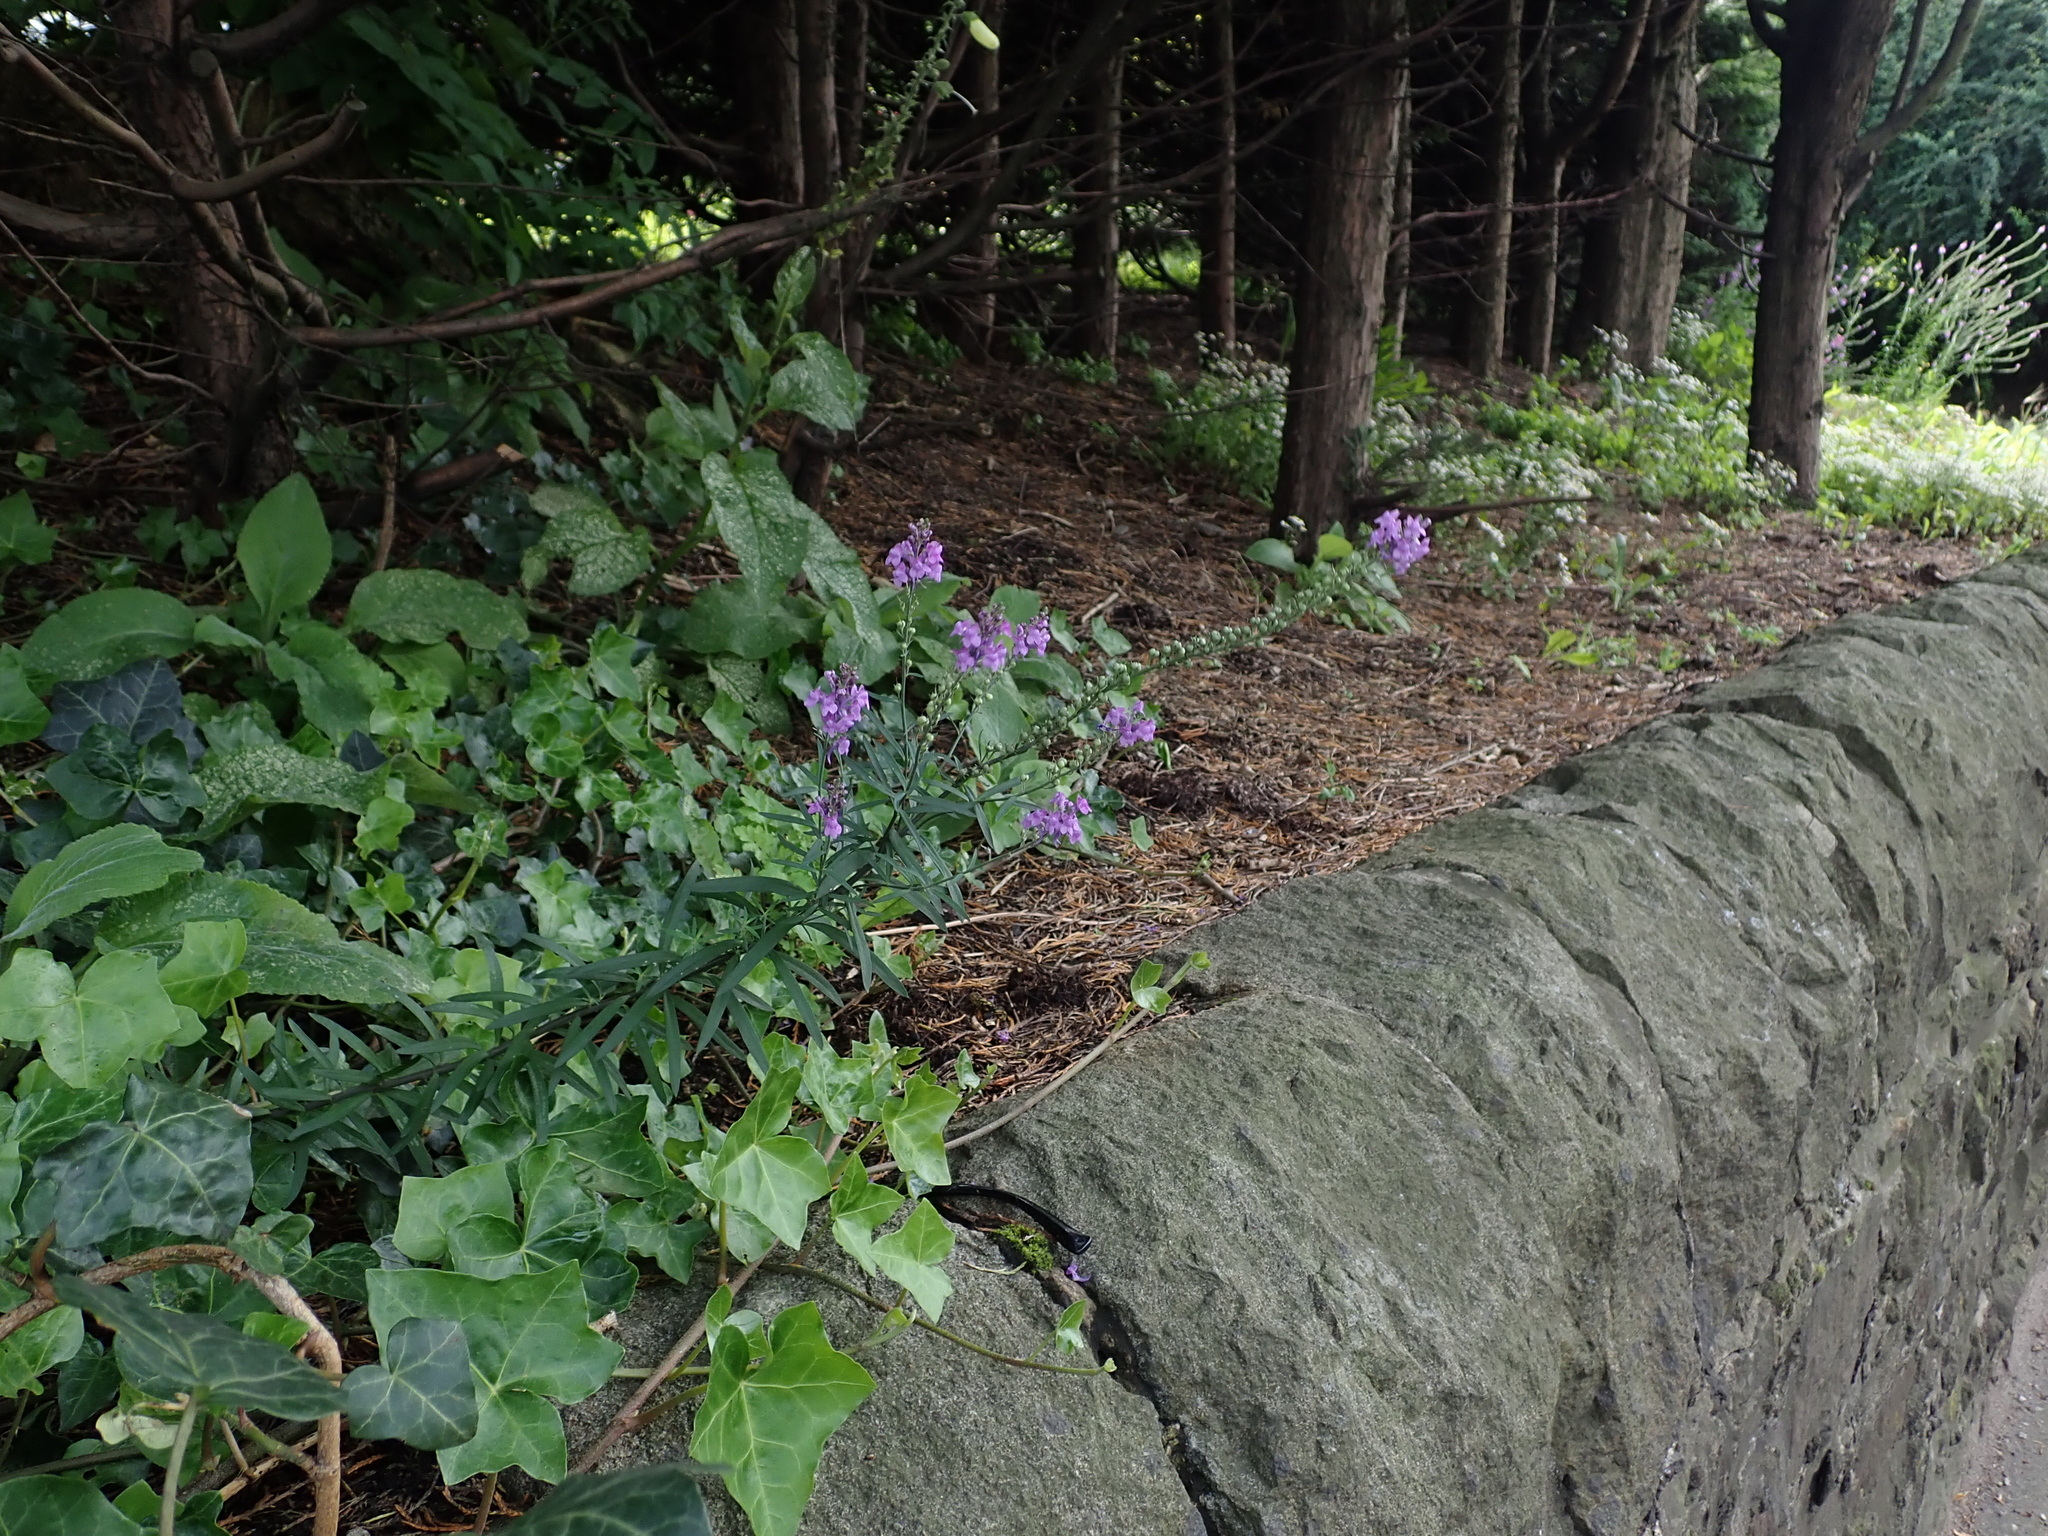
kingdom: Plantae
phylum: Tracheophyta
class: Magnoliopsida
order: Lamiales
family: Plantaginaceae
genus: Linaria
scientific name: Linaria purpurea
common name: Purple toadflax
